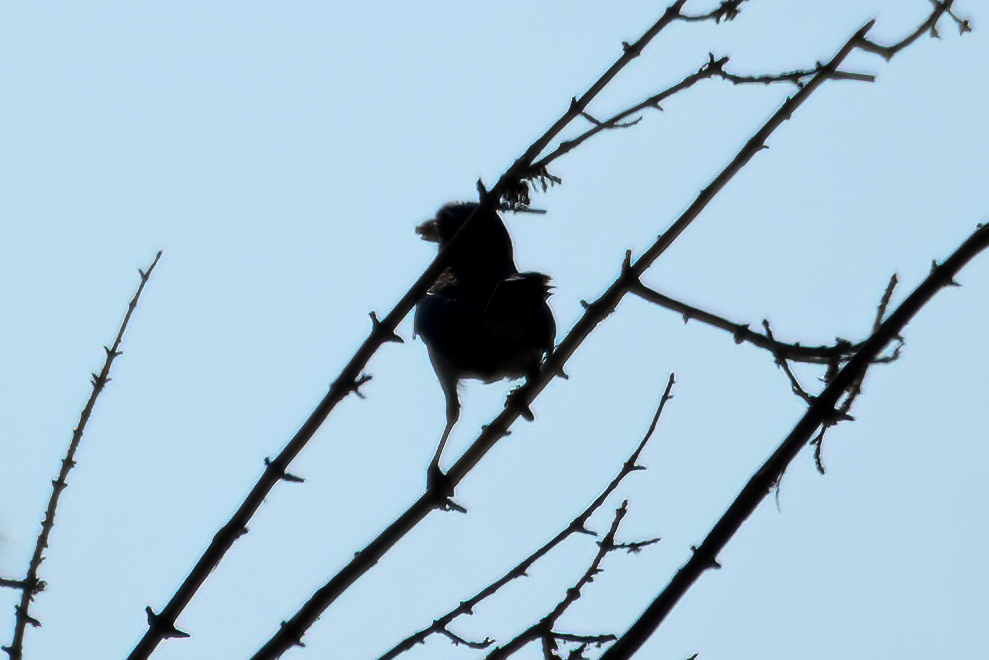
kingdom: Animalia
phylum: Chordata
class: Aves
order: Passeriformes
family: Corvidae
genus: Aphelocoma
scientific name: Aphelocoma californica
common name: California scrub-jay
